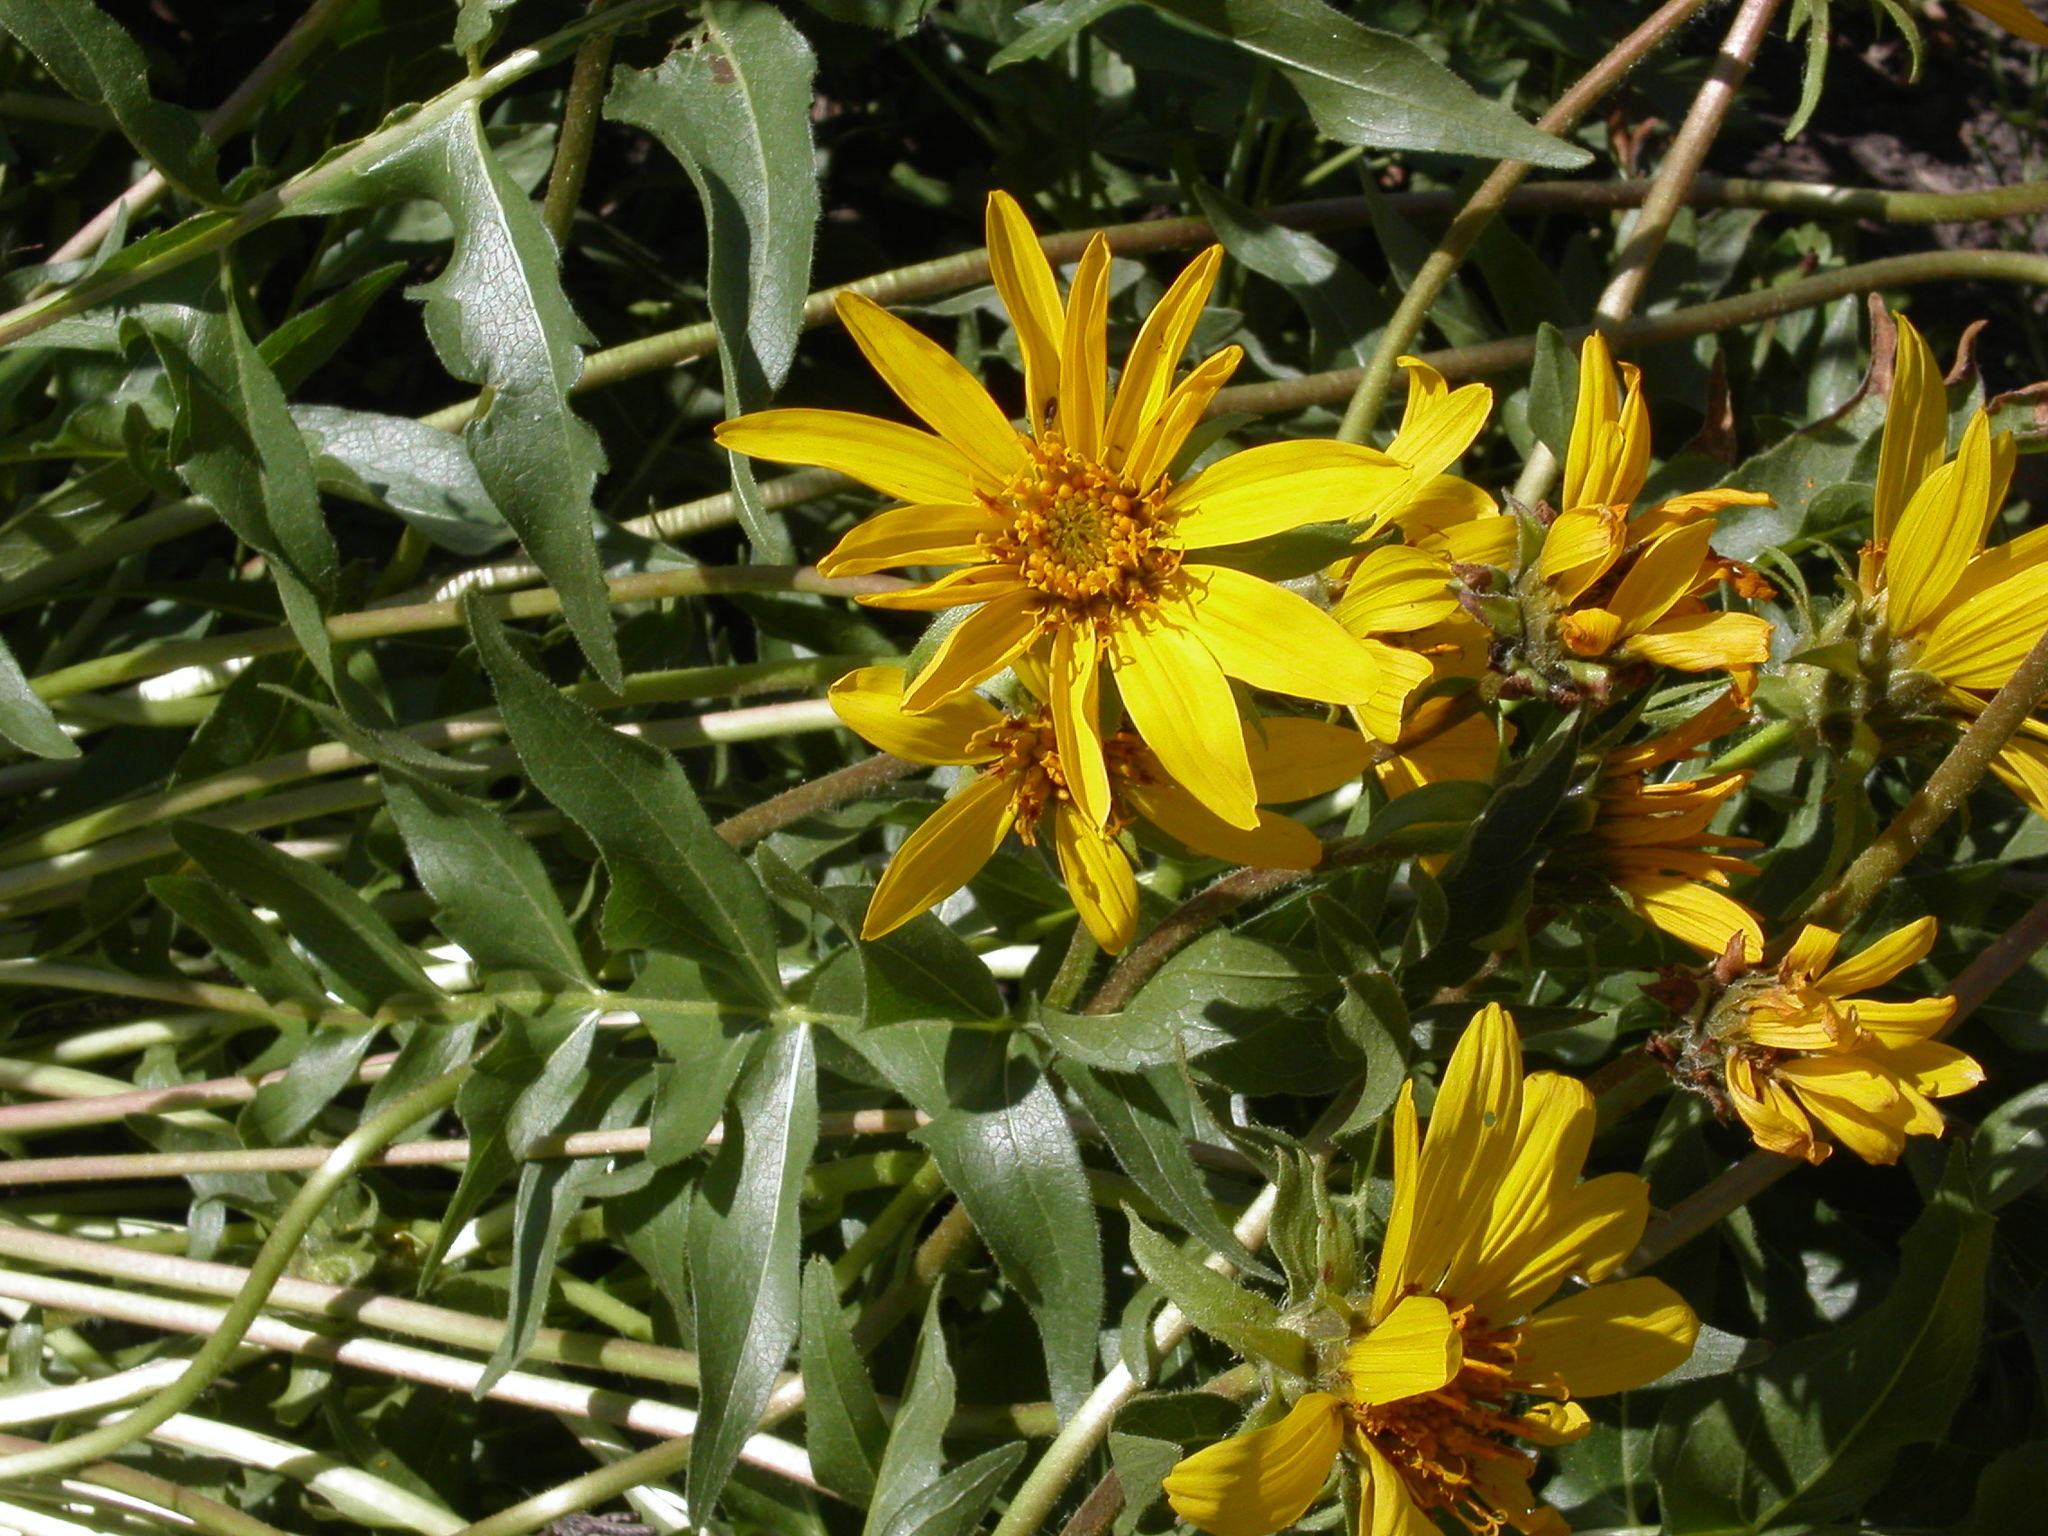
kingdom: Plantae
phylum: Tracheophyta
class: Magnoliopsida
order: Asterales
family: Asteraceae
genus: Wyethia
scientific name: Wyethia sagittata
